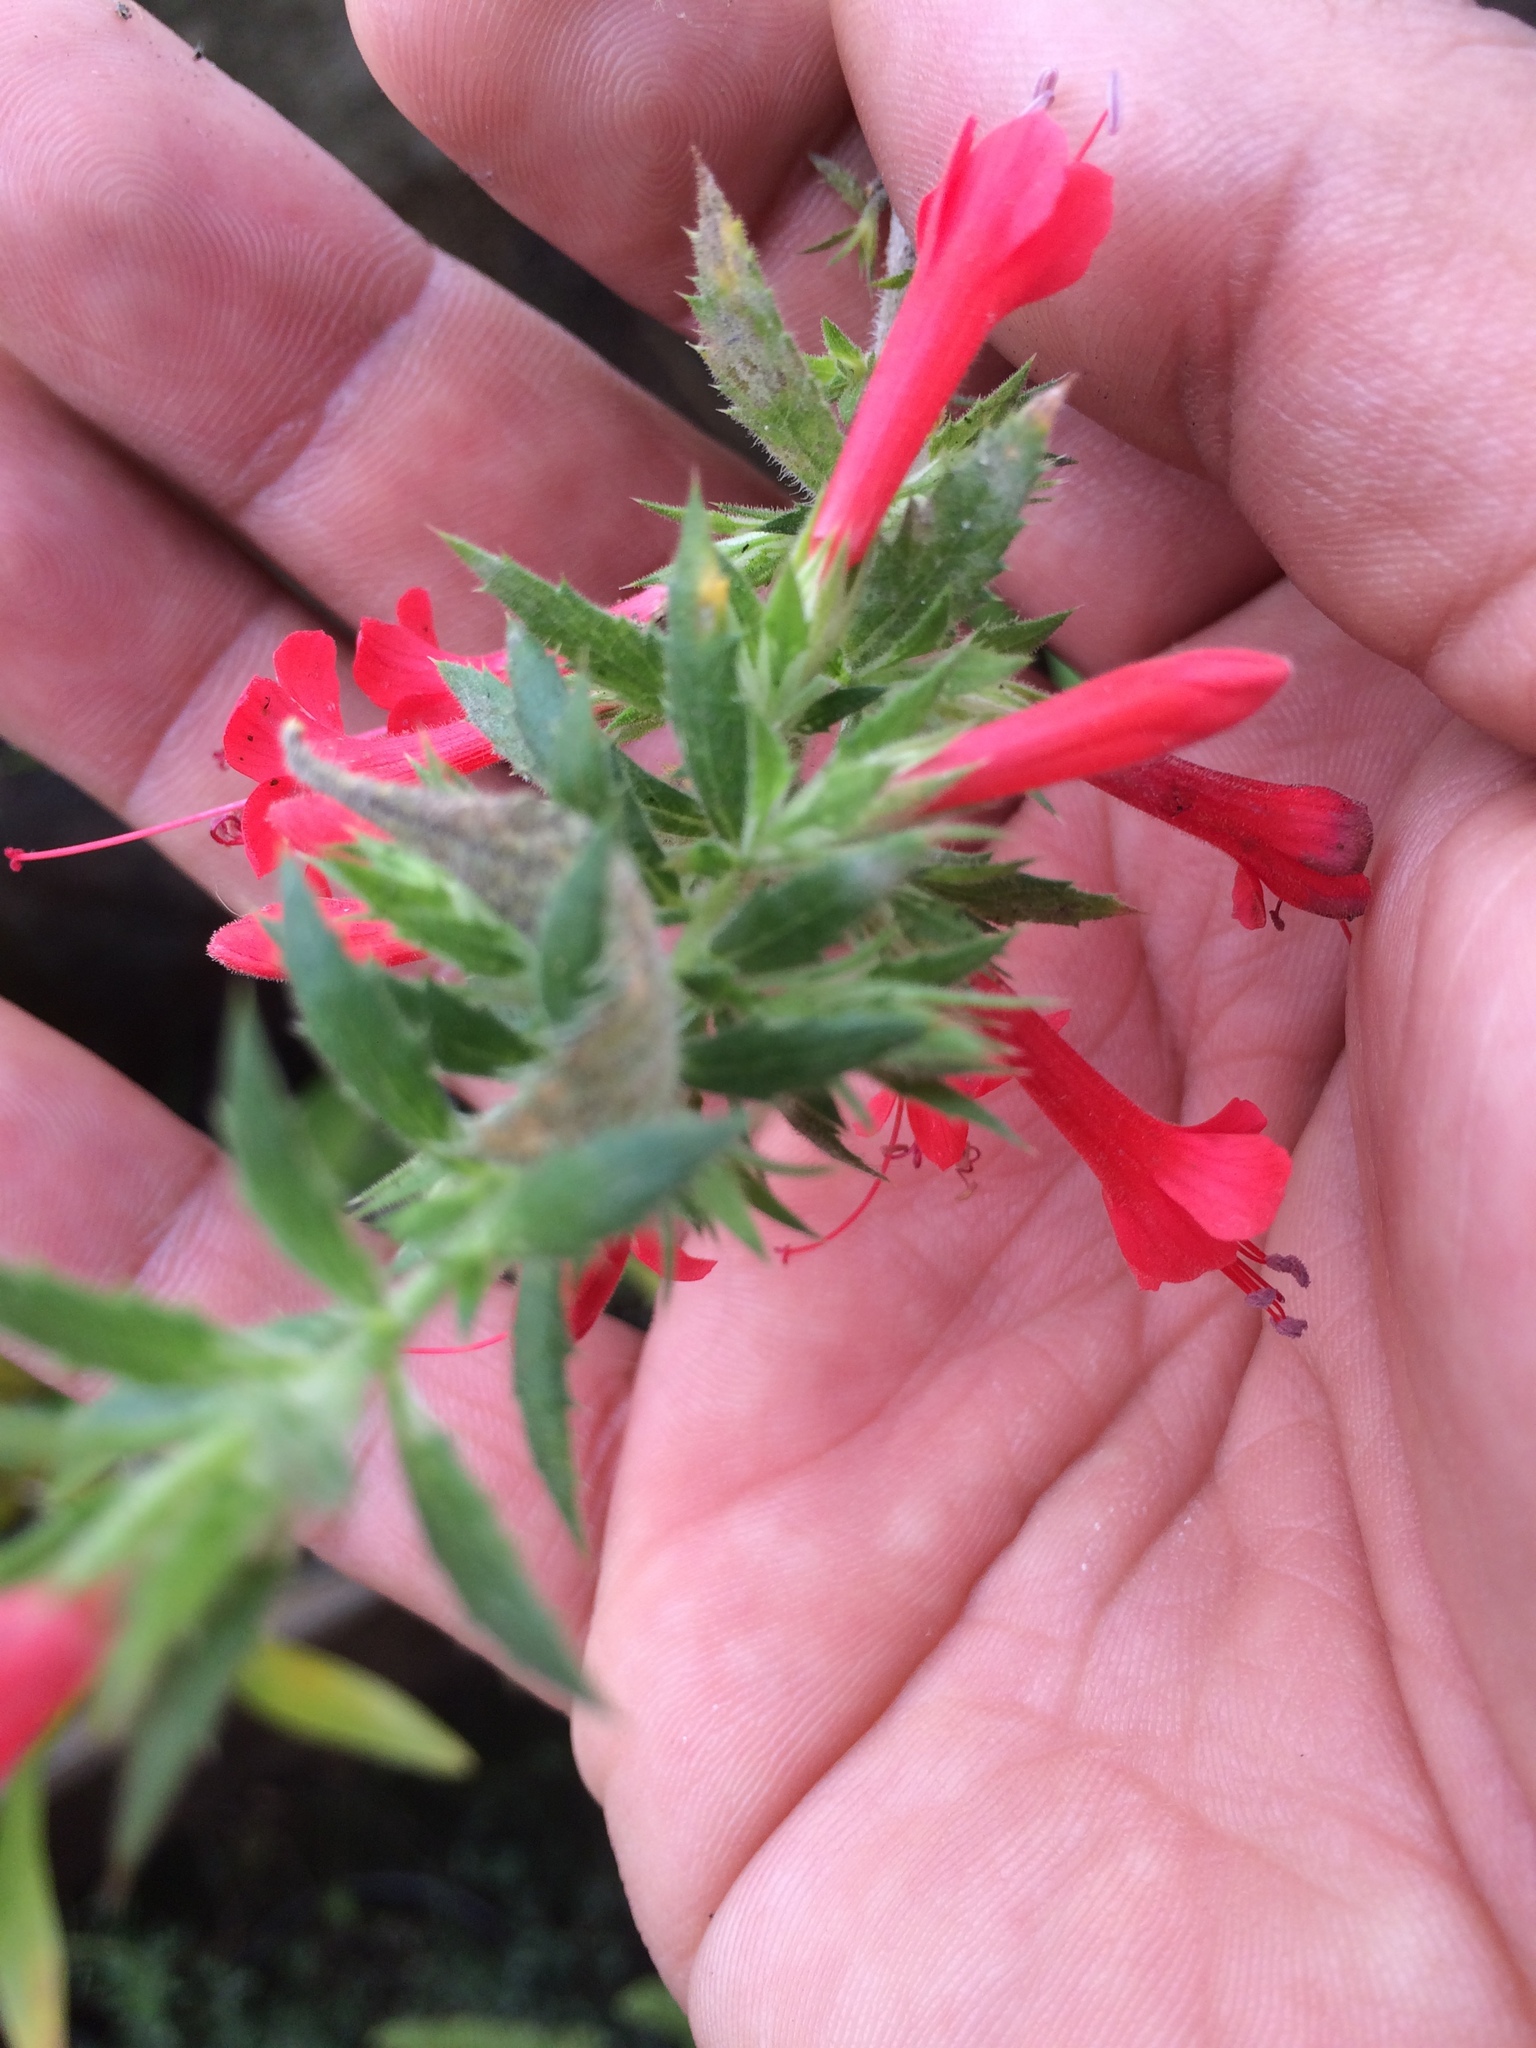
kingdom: Plantae
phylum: Tracheophyta
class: Magnoliopsida
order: Ericales
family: Polemoniaceae
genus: Loeselia
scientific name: Loeselia mexicana
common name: Mexican false calico
